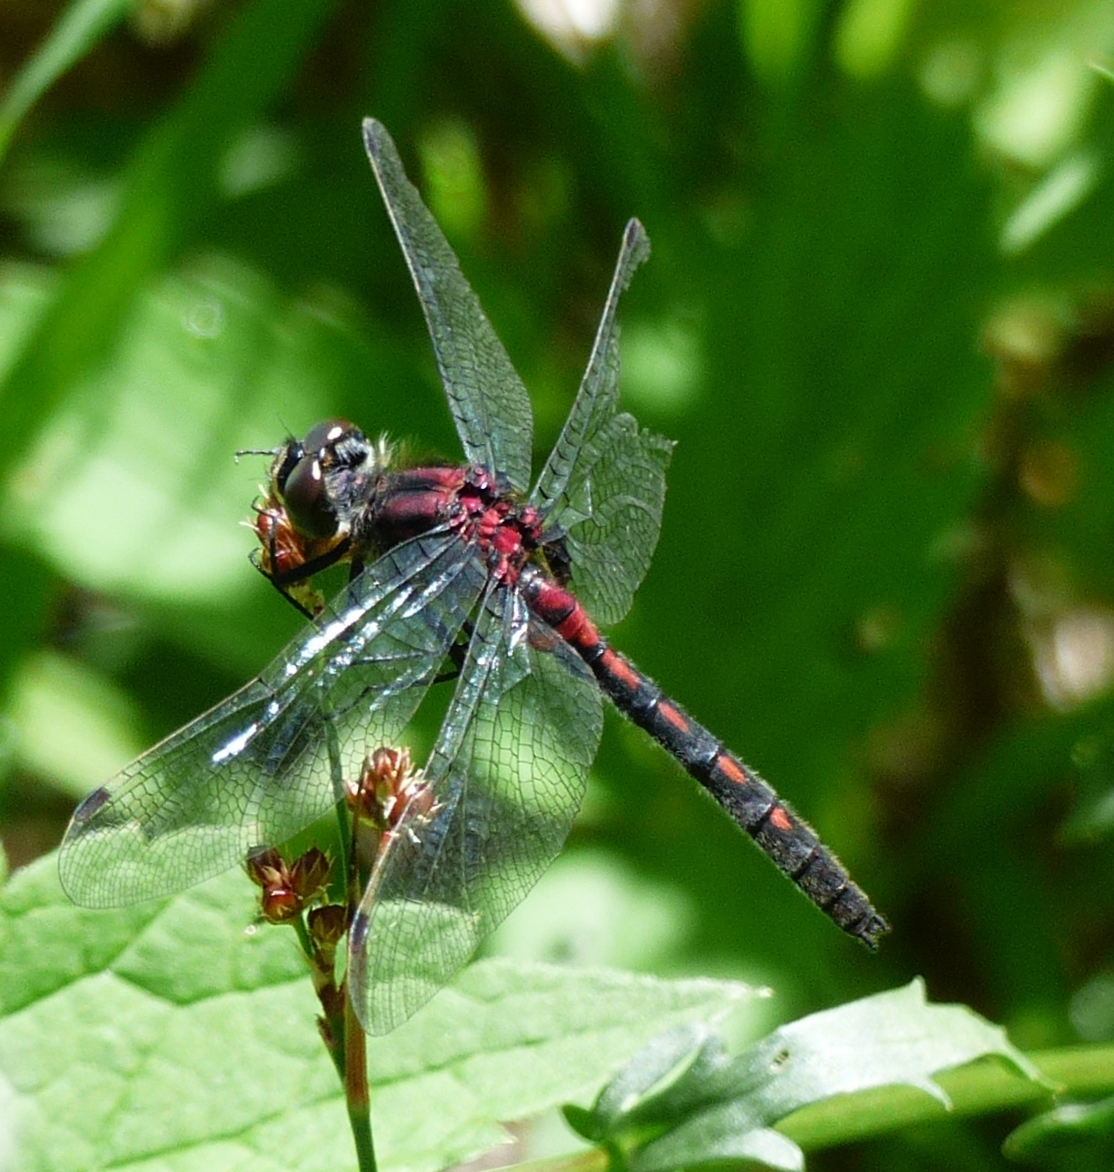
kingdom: Animalia
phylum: Arthropoda
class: Insecta
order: Odonata
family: Libellulidae
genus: Leucorrhinia
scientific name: Leucorrhinia hudsonica
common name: Hudsonian whiteface
